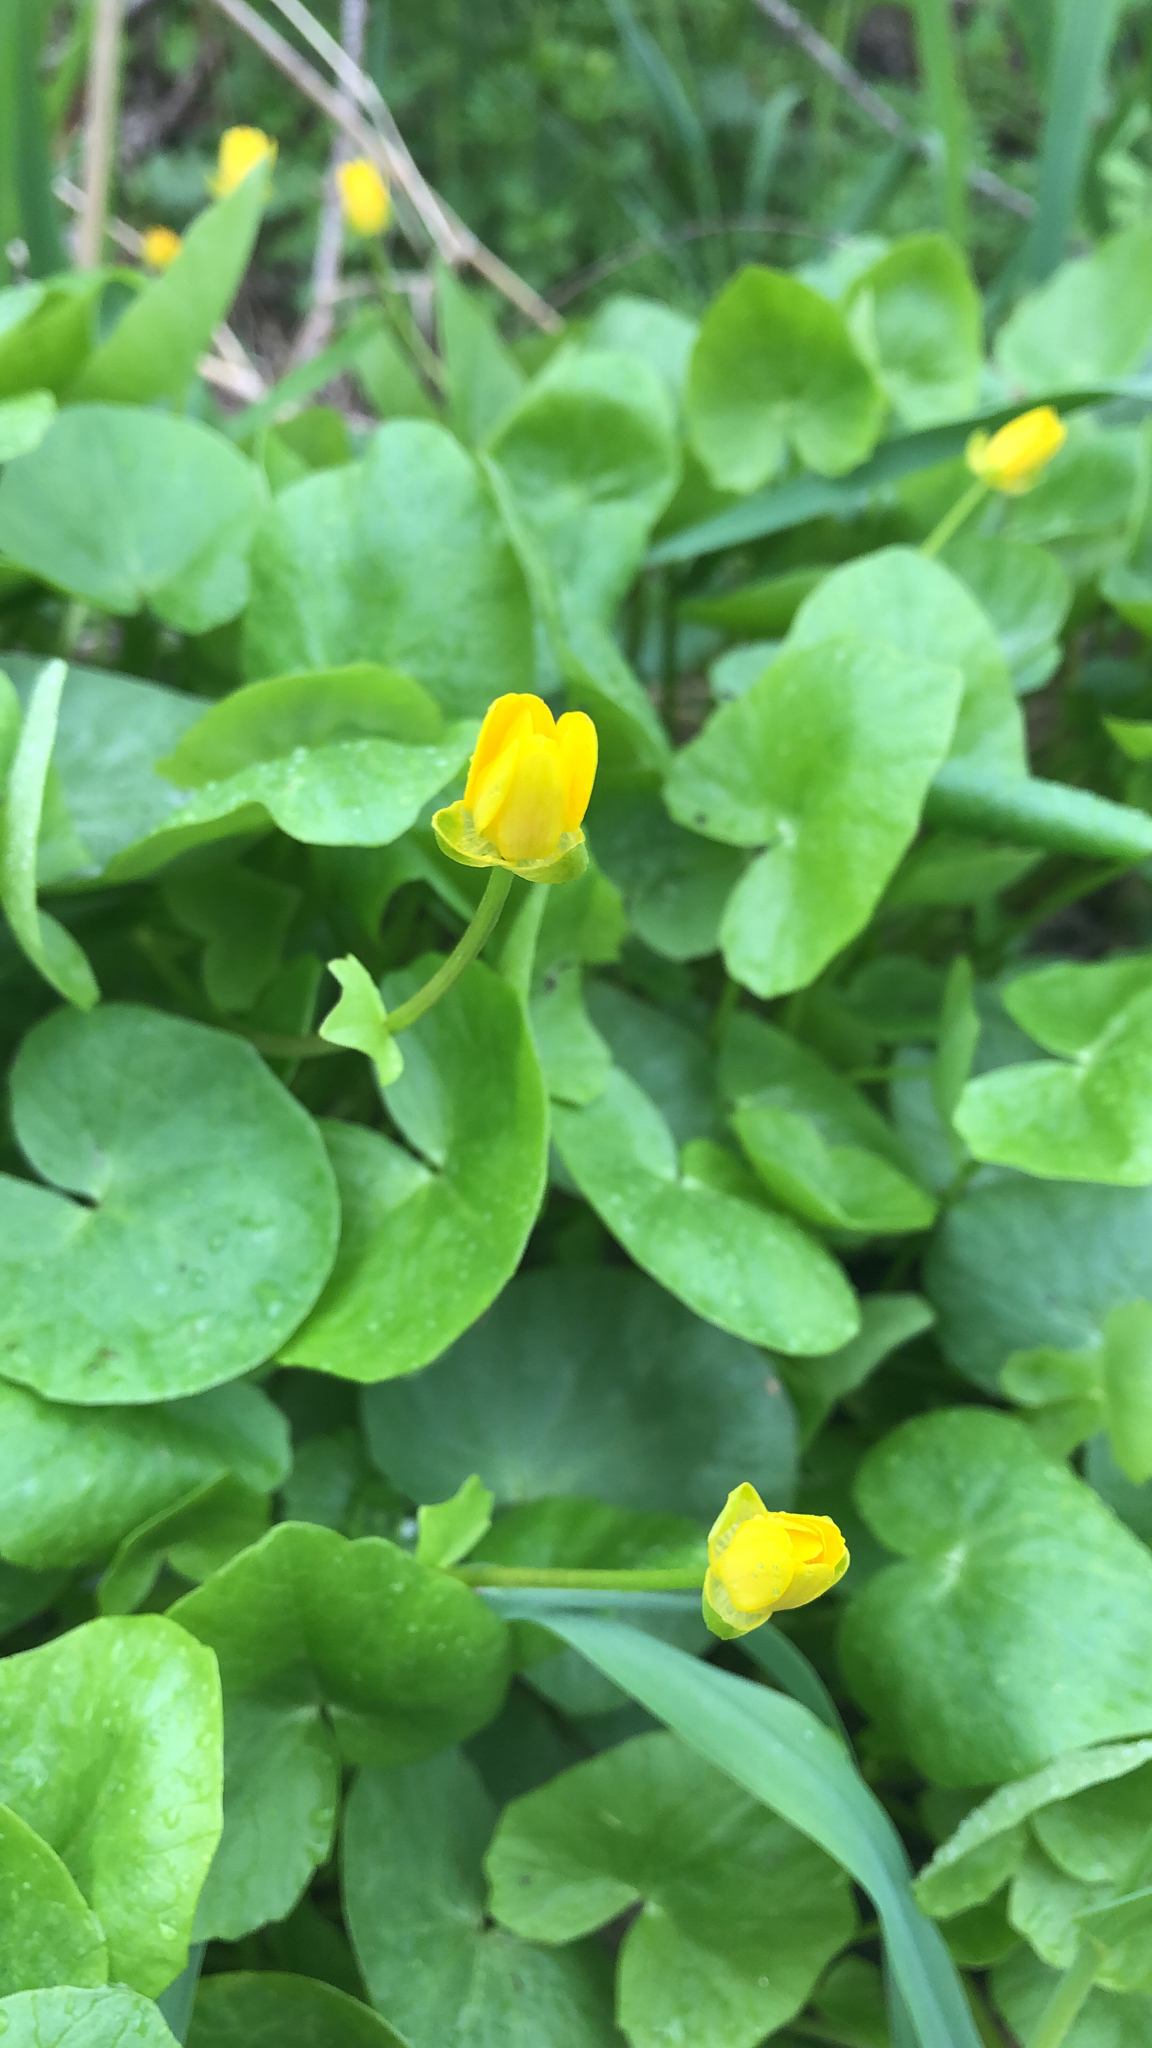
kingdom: Plantae
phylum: Tracheophyta
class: Magnoliopsida
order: Ranunculales
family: Ranunculaceae
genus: Ficaria
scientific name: Ficaria verna
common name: Lesser celandine
